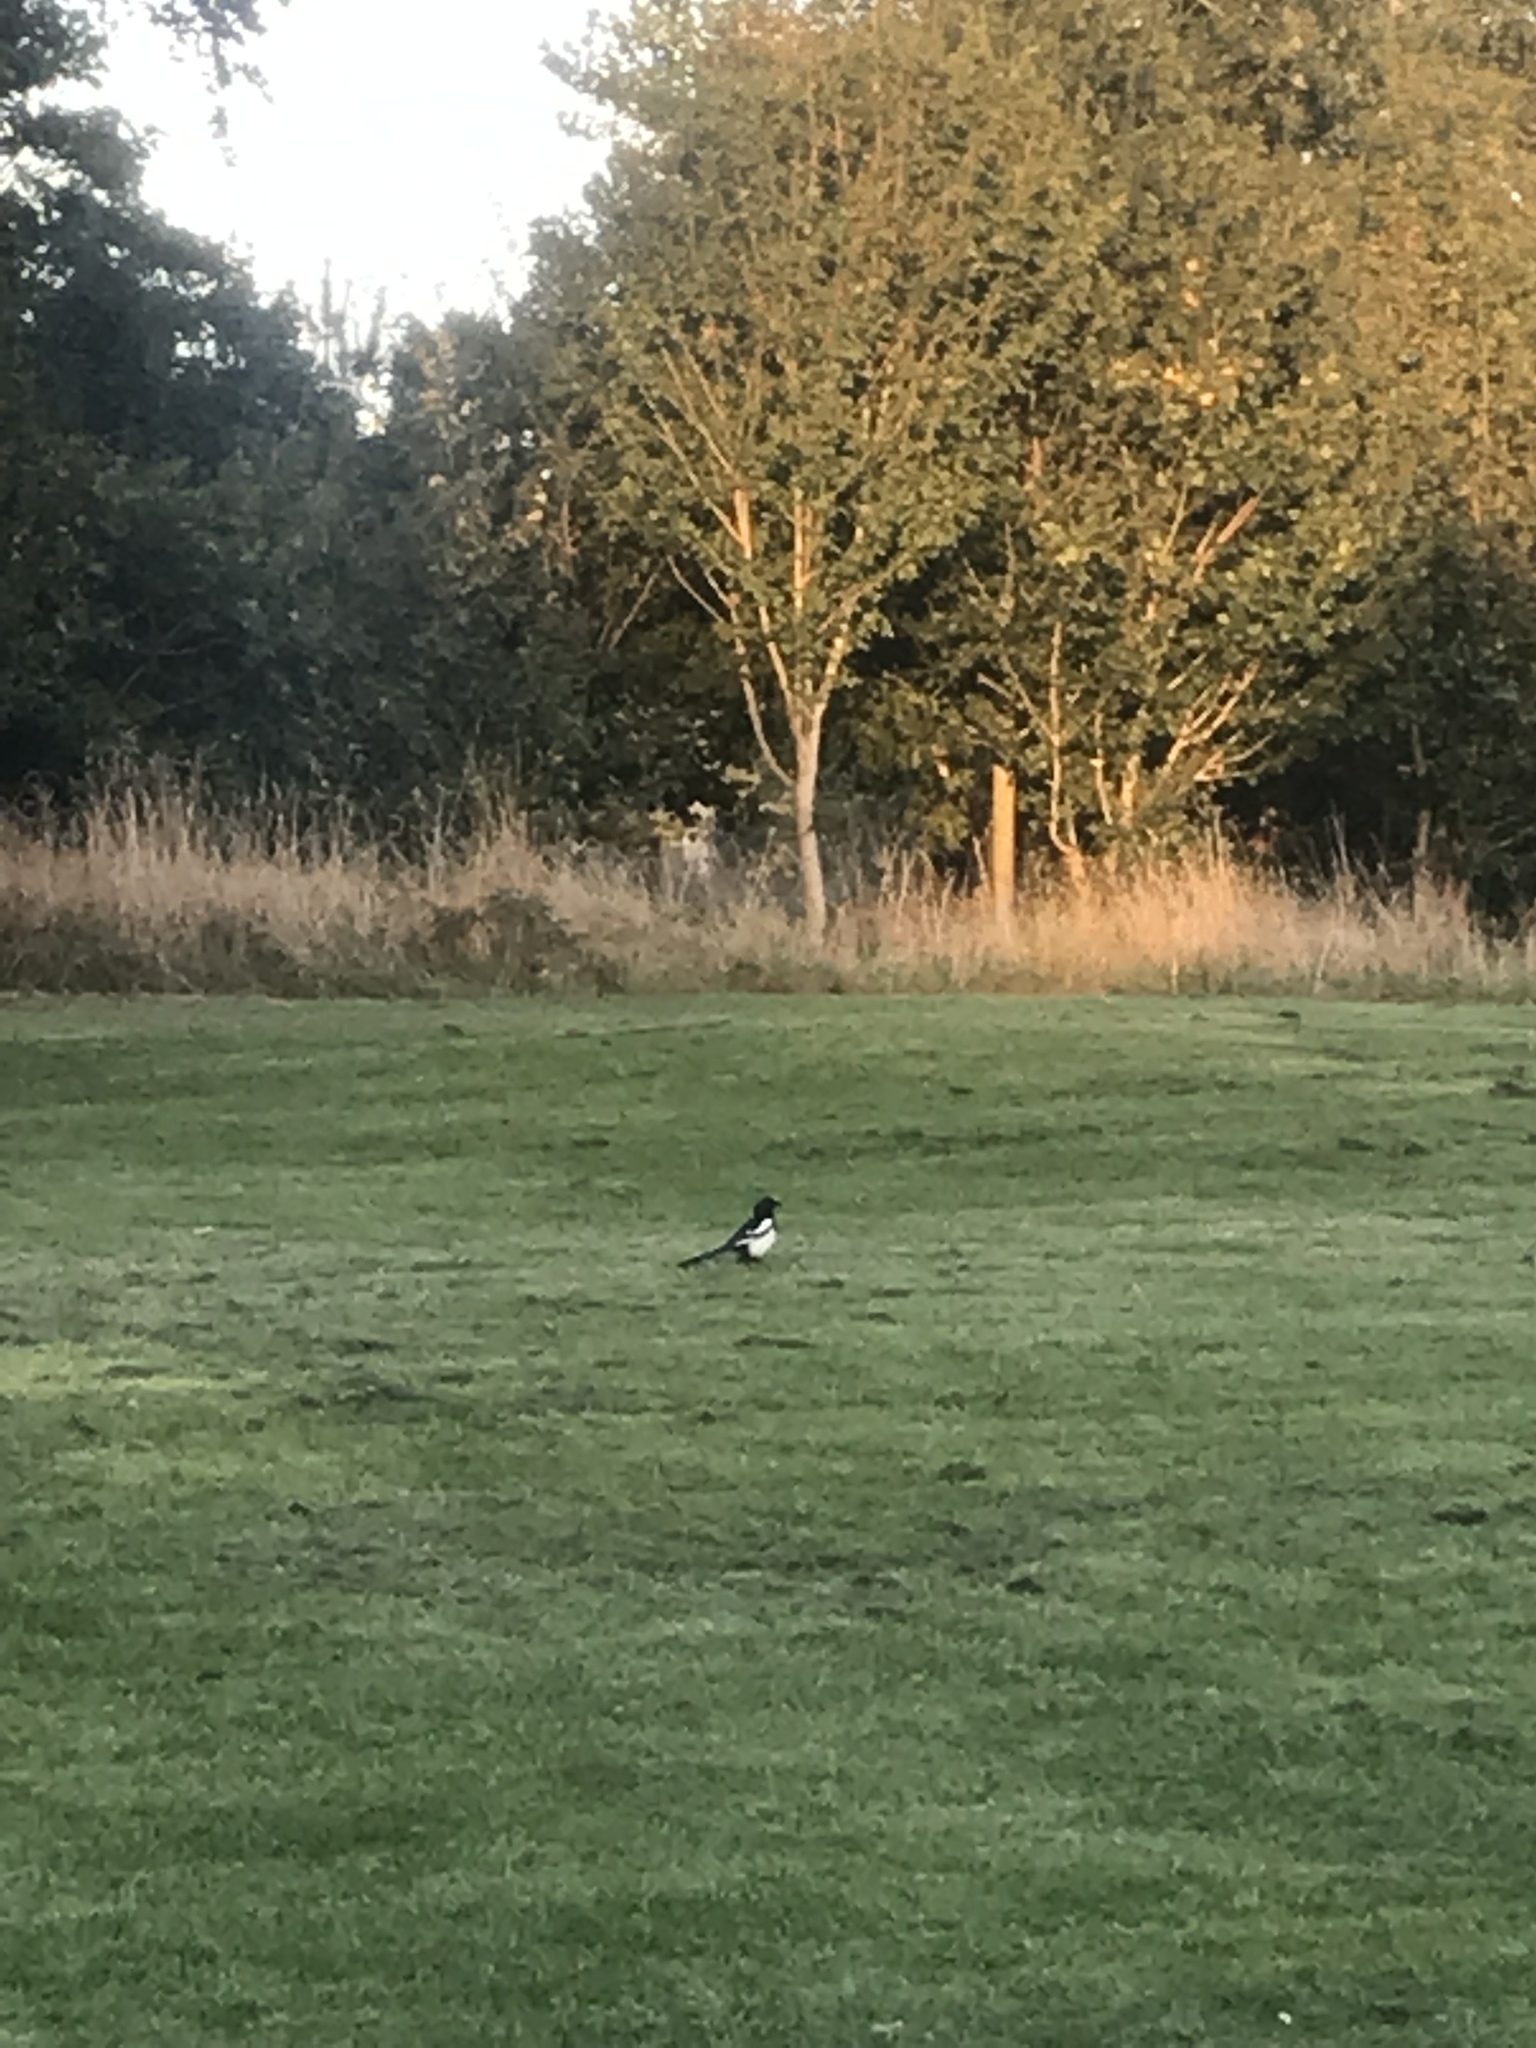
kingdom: Animalia
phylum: Chordata
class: Aves
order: Passeriformes
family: Corvidae
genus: Pica
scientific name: Pica pica
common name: Eurasian magpie
